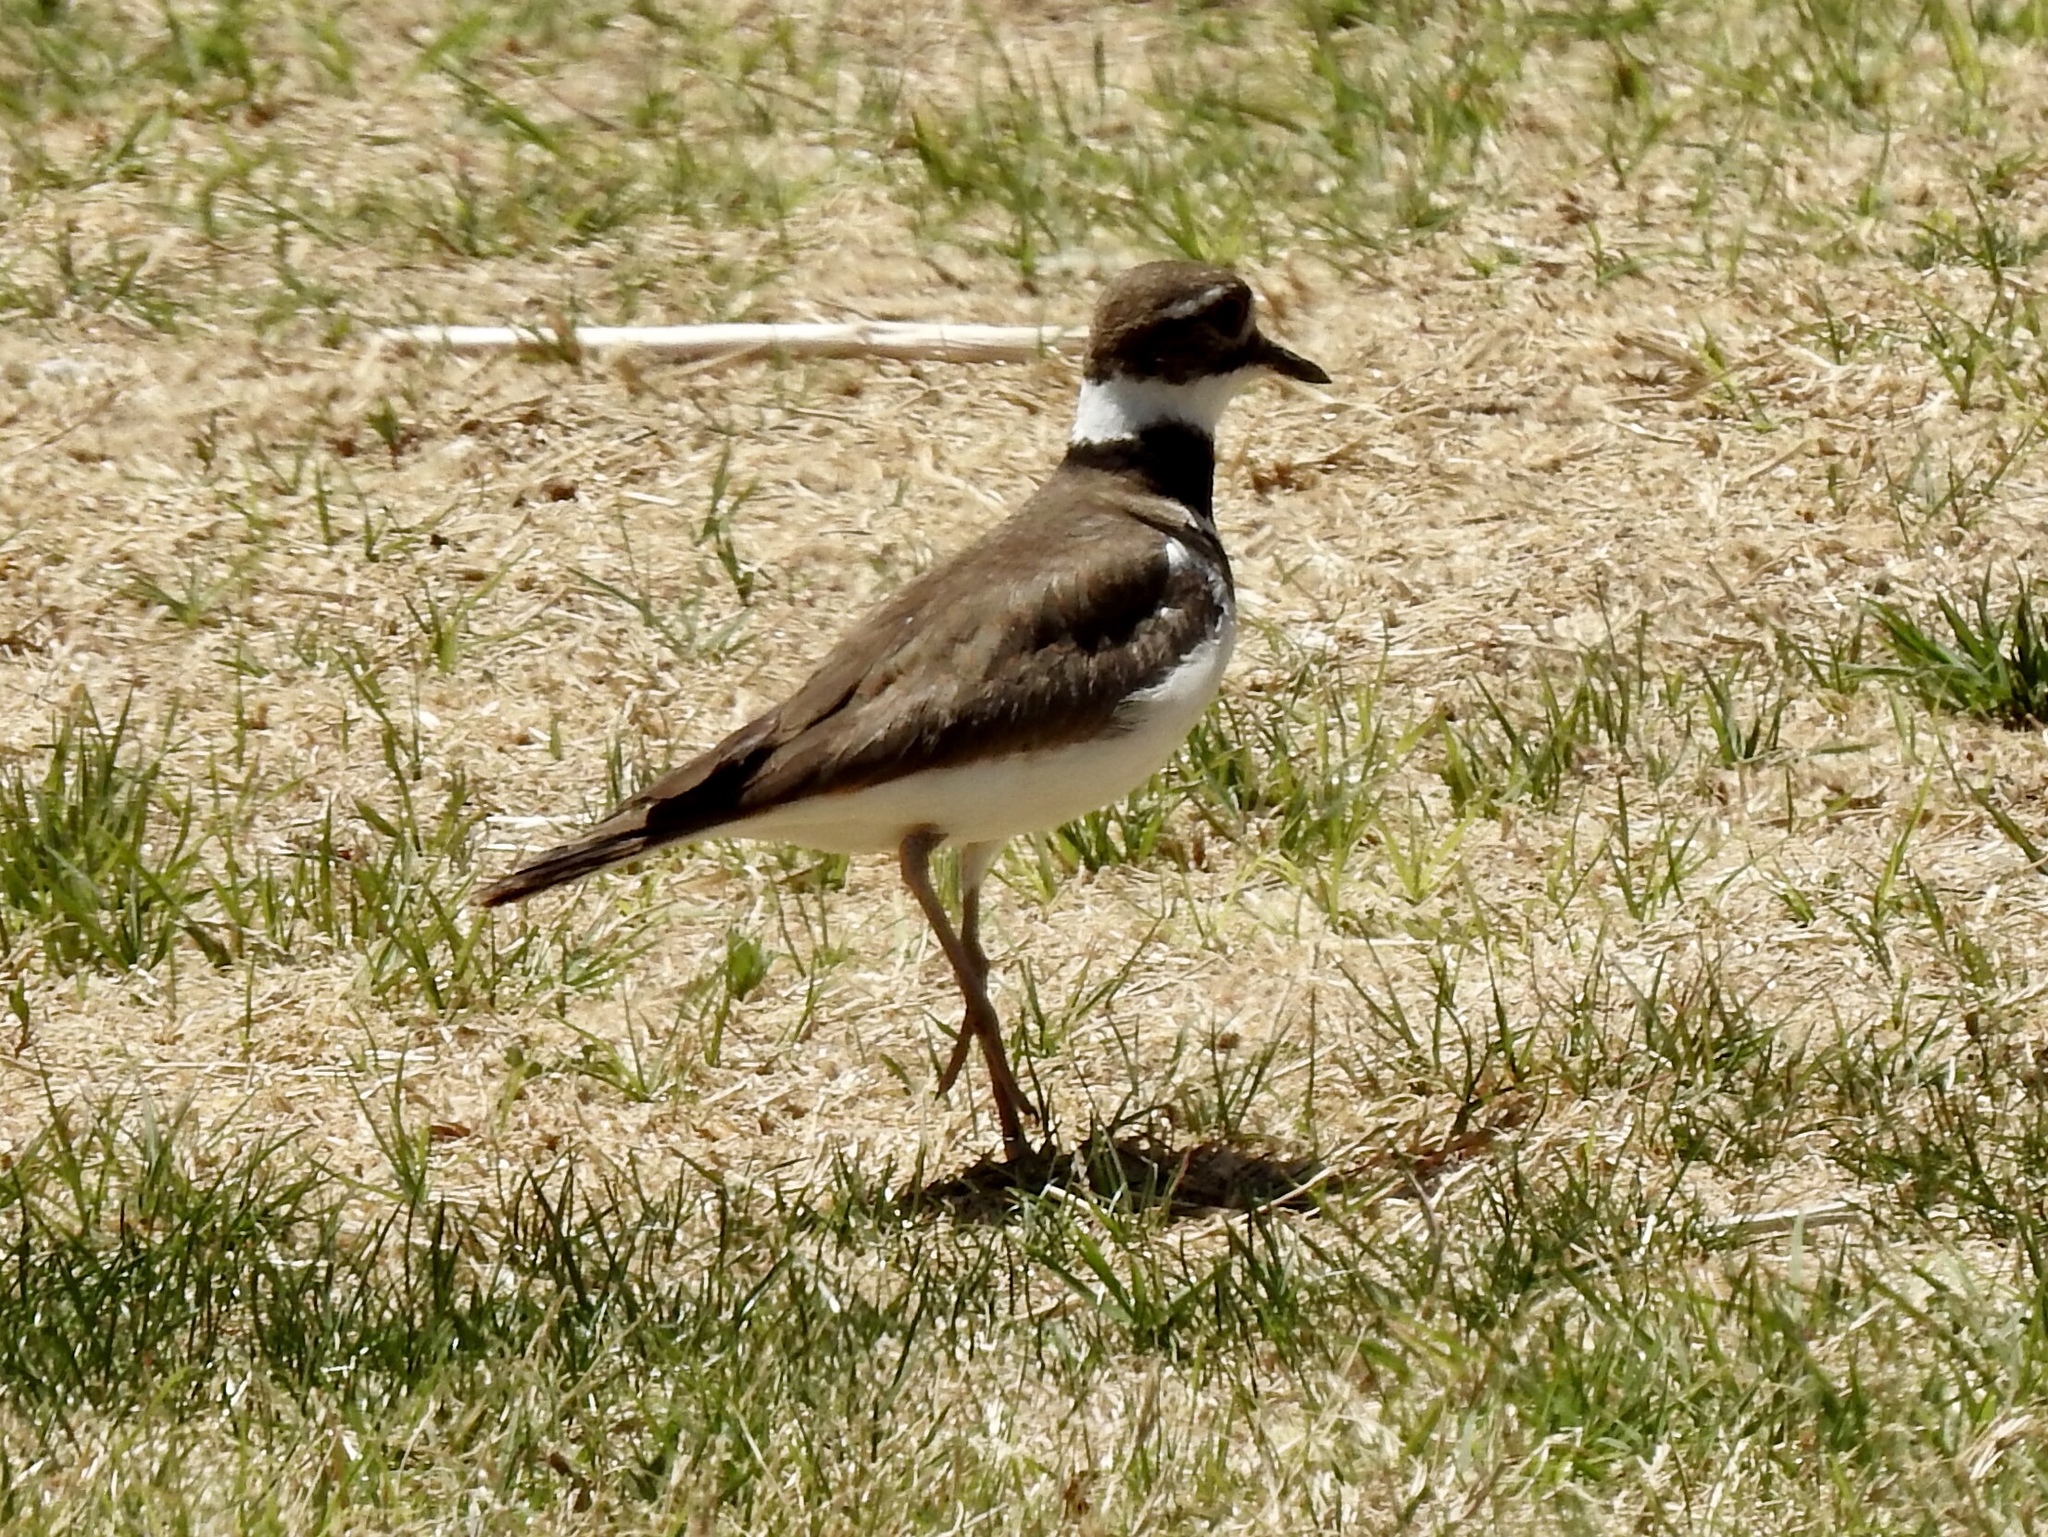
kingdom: Animalia
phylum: Chordata
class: Aves
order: Charadriiformes
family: Charadriidae
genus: Charadrius
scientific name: Charadrius vociferus
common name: Killdeer
